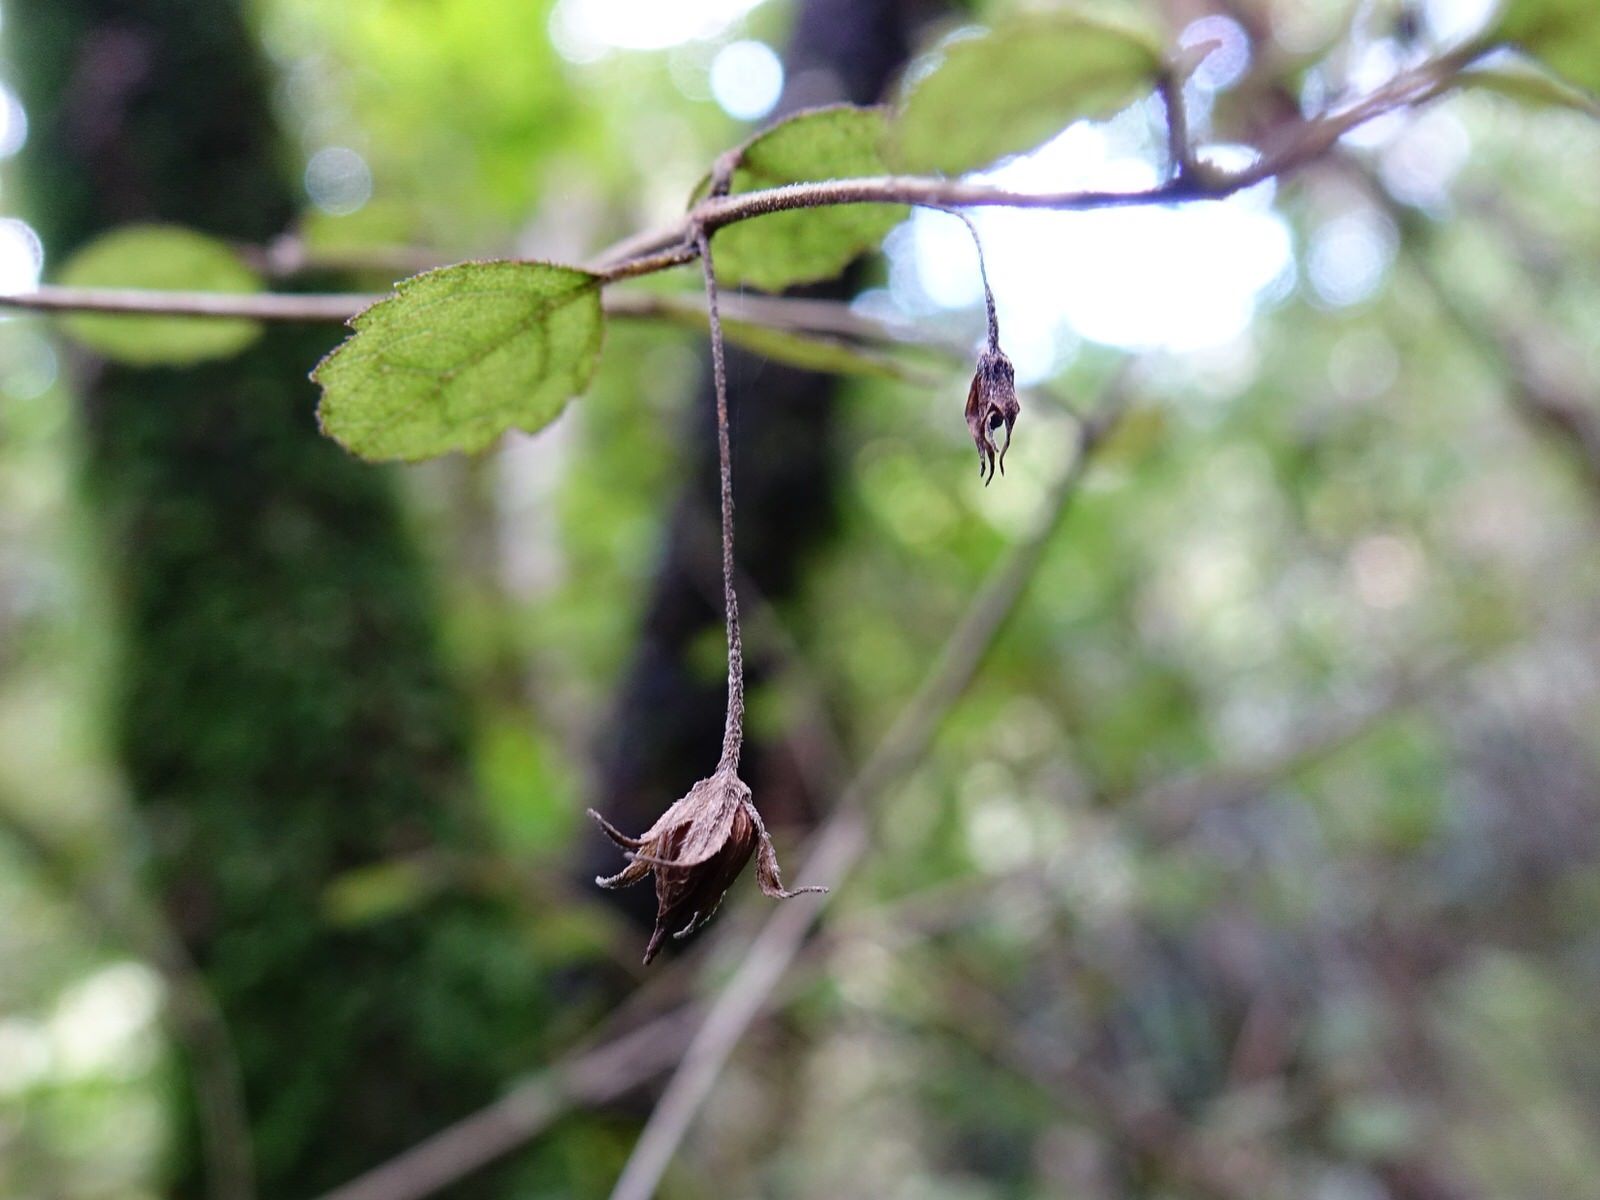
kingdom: Plantae
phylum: Tracheophyta
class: Magnoliopsida
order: Lamiales
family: Gesneriaceae
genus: Rhabdothamnus
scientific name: Rhabdothamnus solandri
